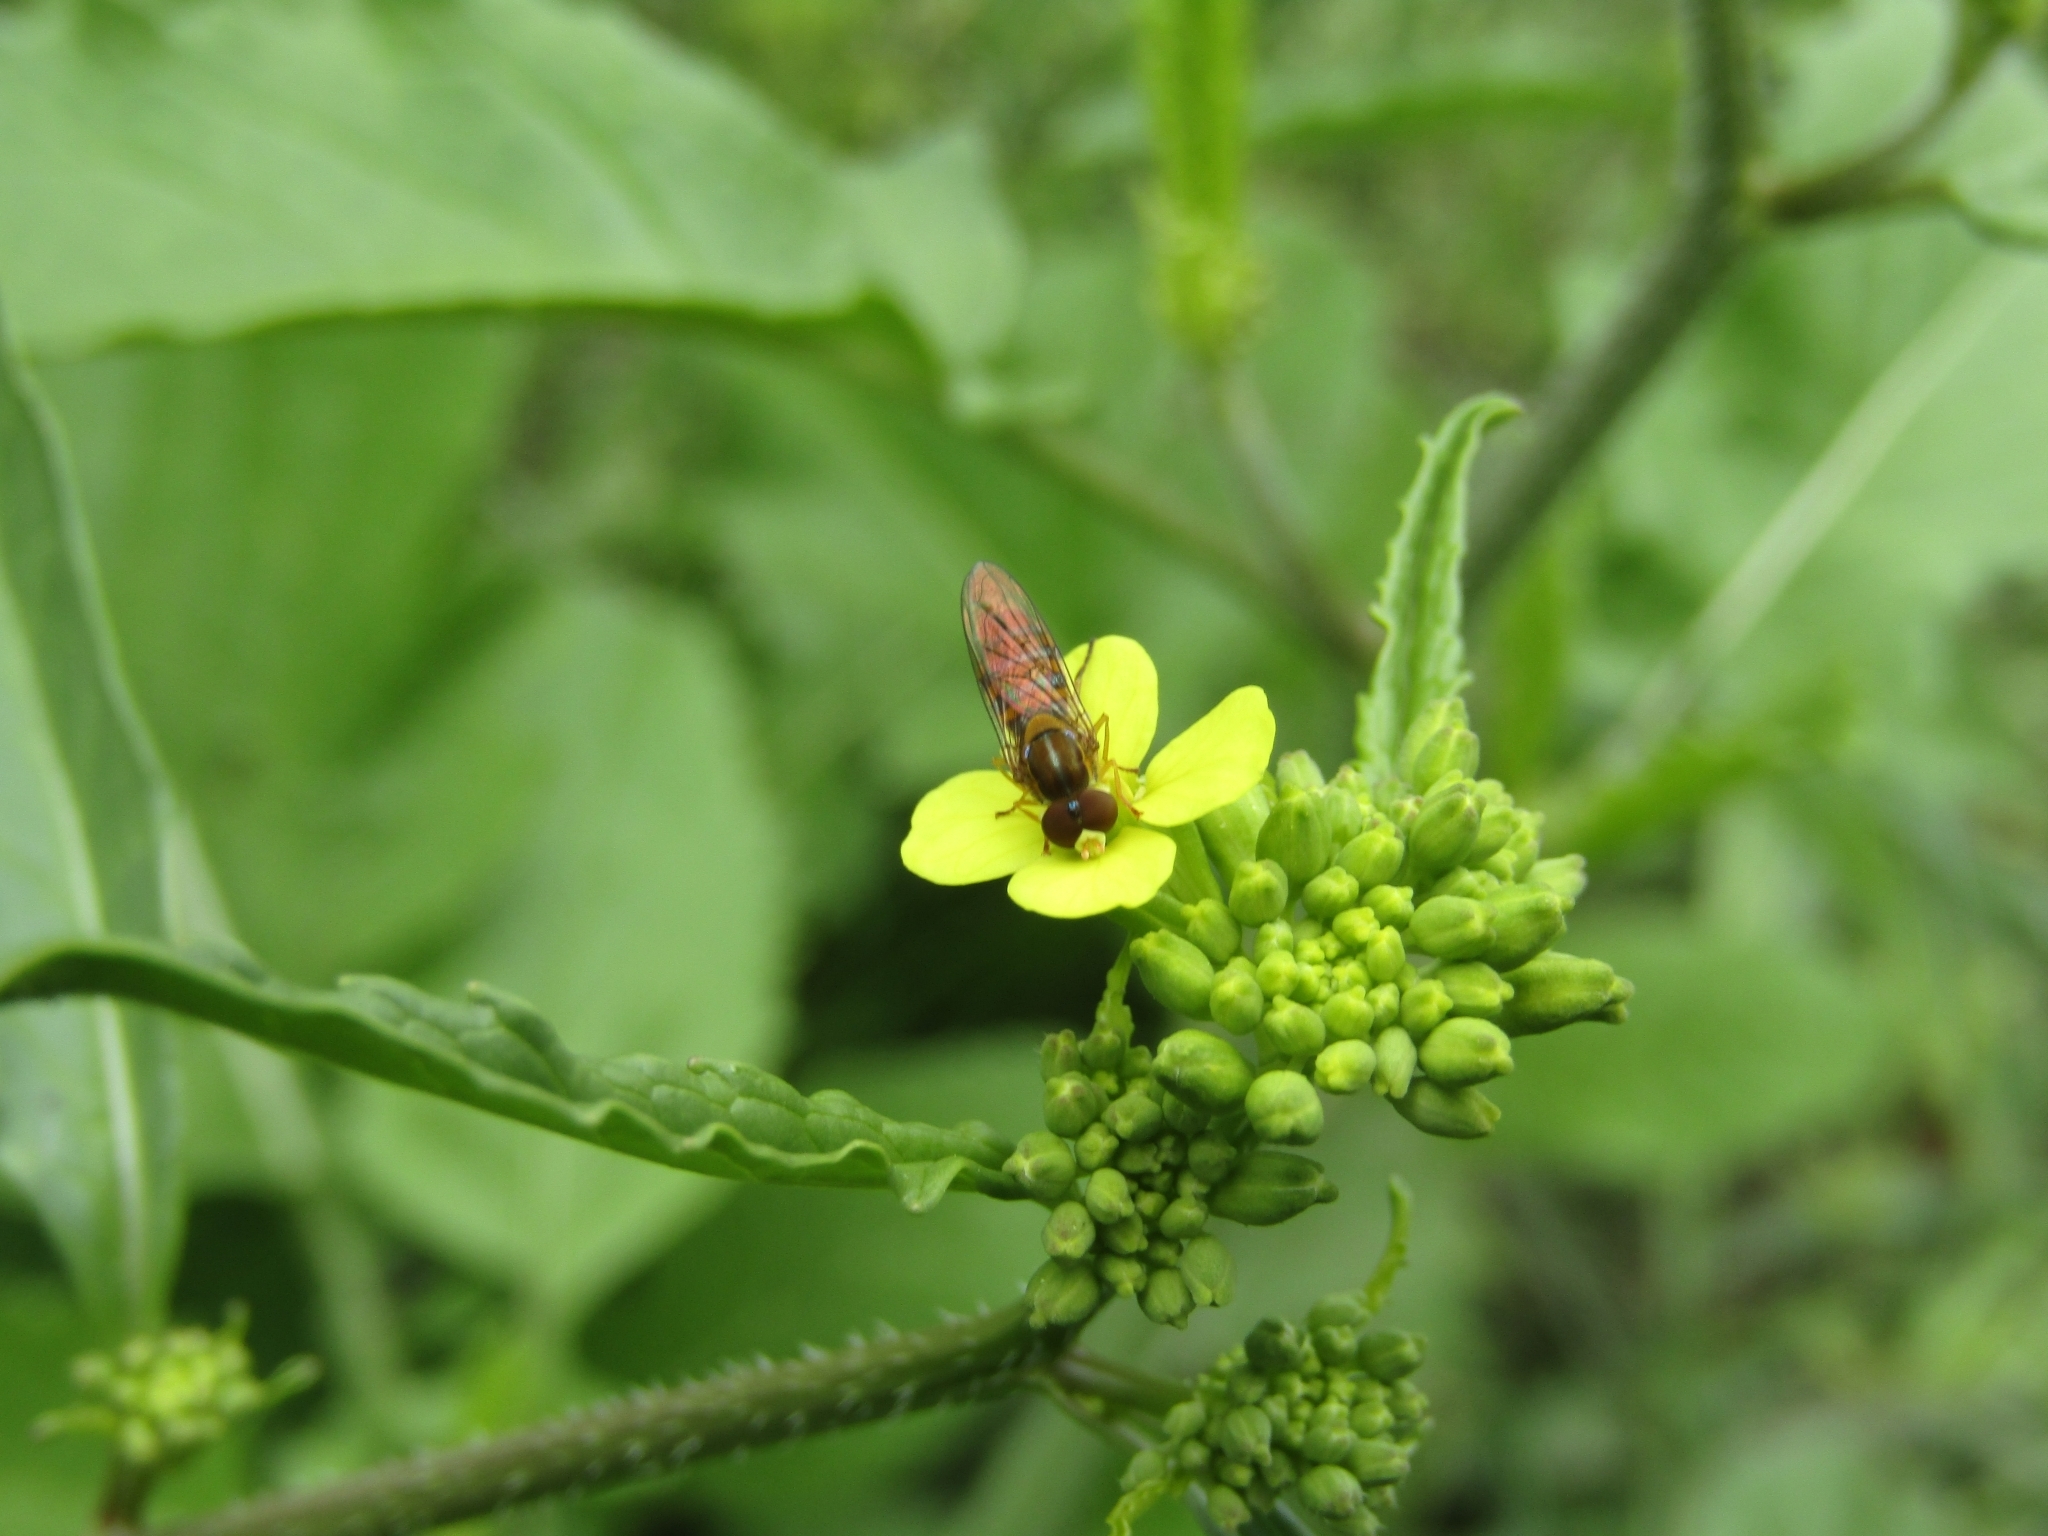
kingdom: Animalia
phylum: Arthropoda
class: Insecta
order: Diptera
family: Syrphidae
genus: Toxomerus
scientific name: Toxomerus
